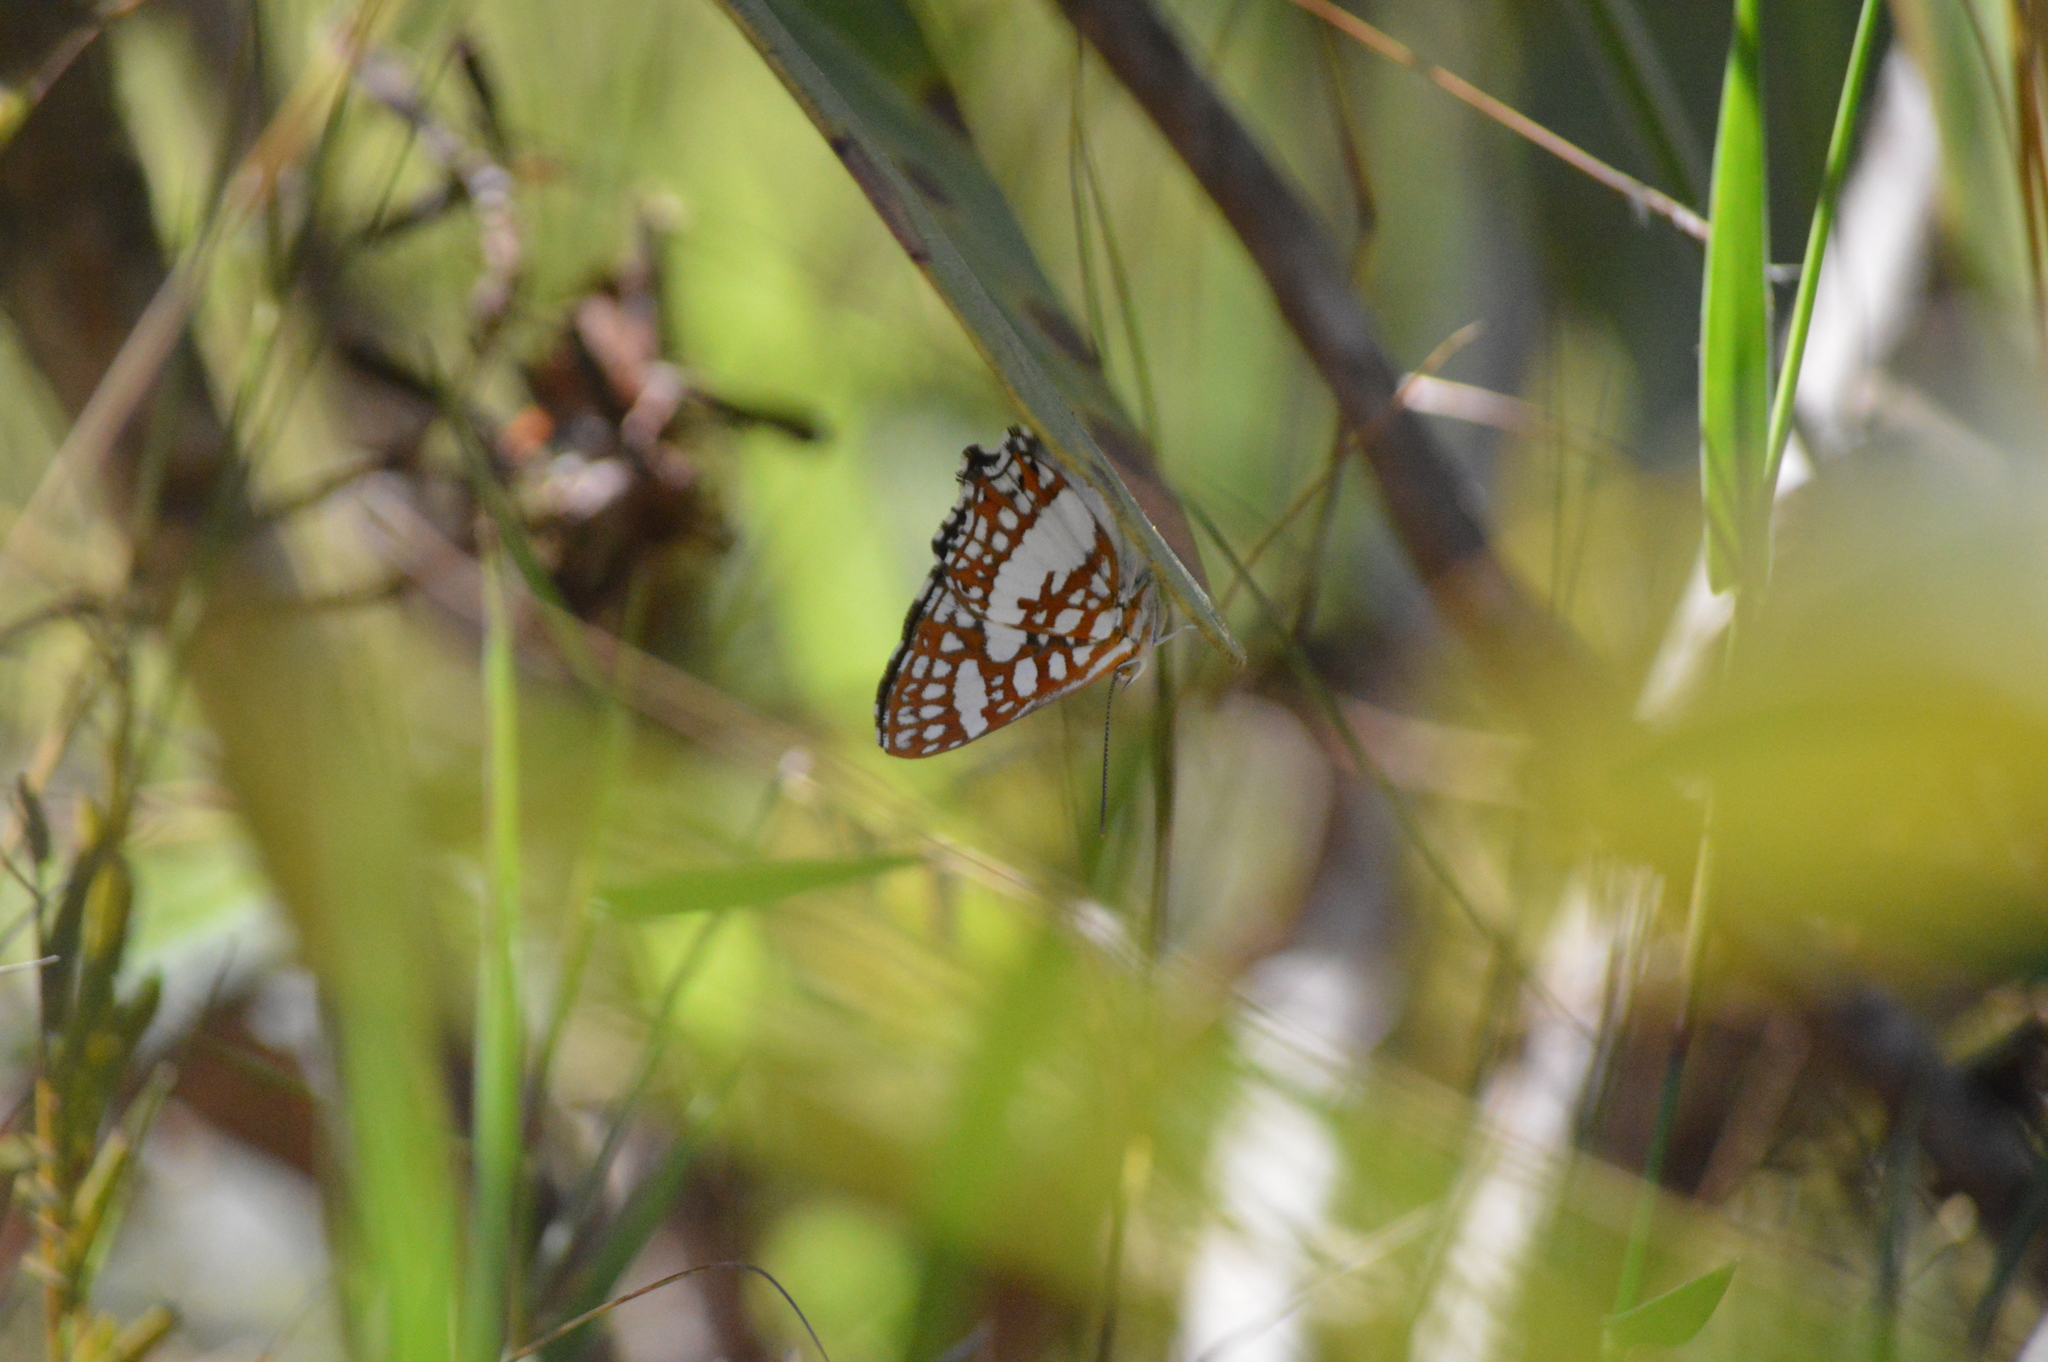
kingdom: Animalia
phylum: Arthropoda
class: Insecta
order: Lepidoptera
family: Riodinidae
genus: Ariconias
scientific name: Ariconias glaphyra
